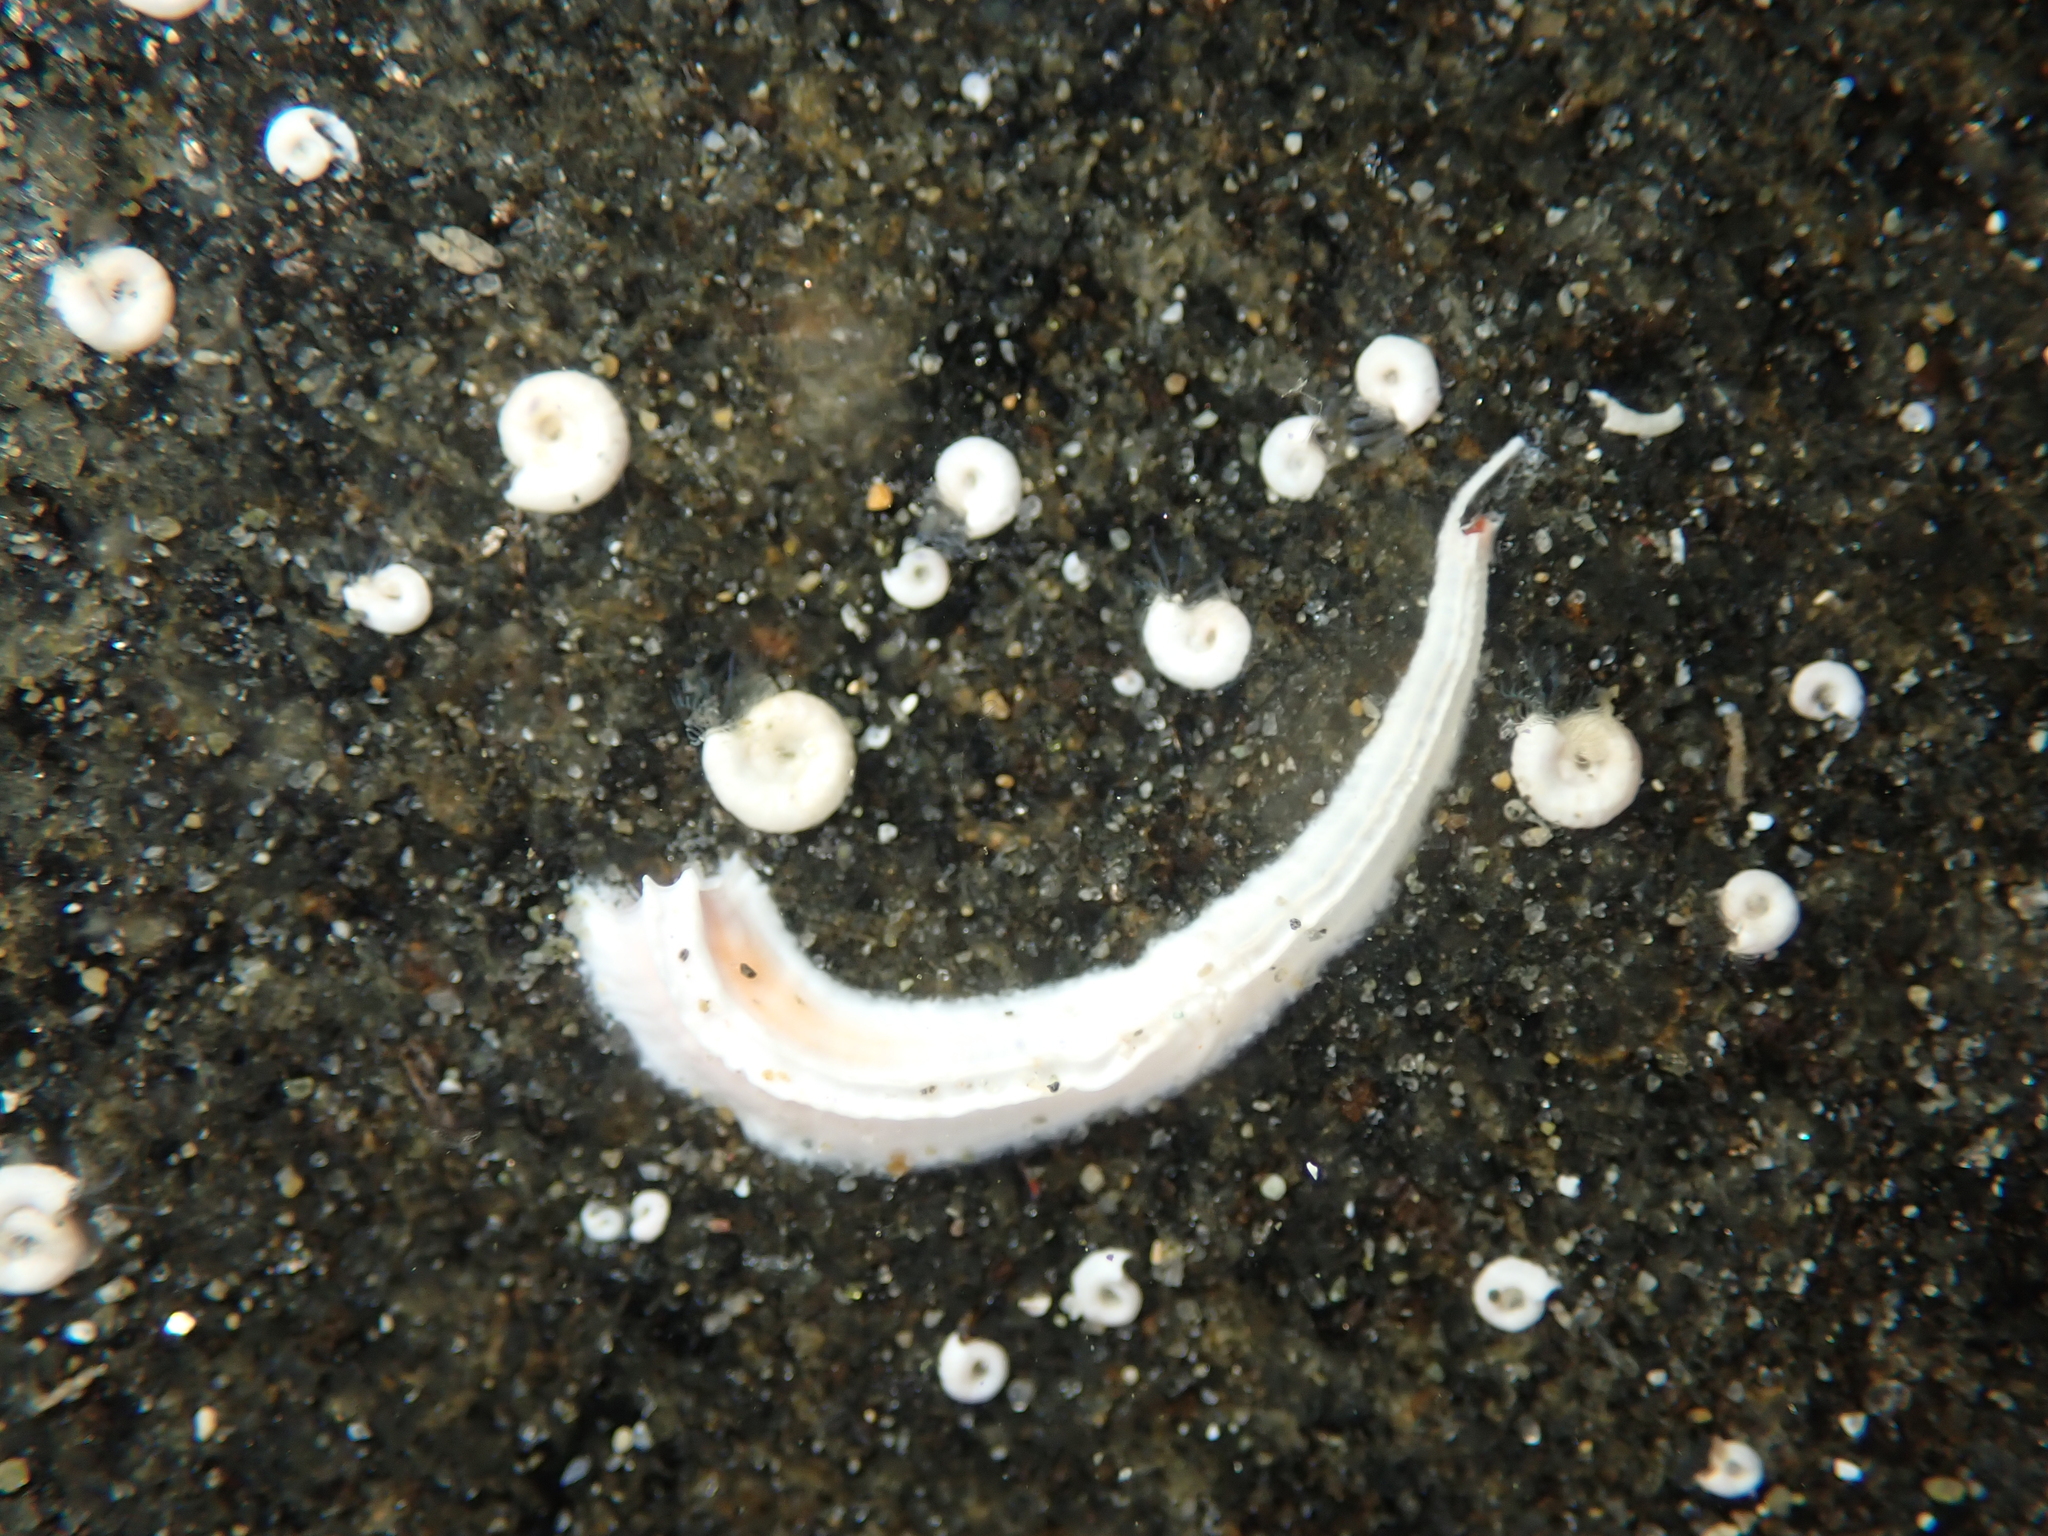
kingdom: Animalia
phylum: Annelida
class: Polychaeta
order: Sabellida
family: Serpulidae
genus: Galeolaria
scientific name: Galeolaria hystrix
